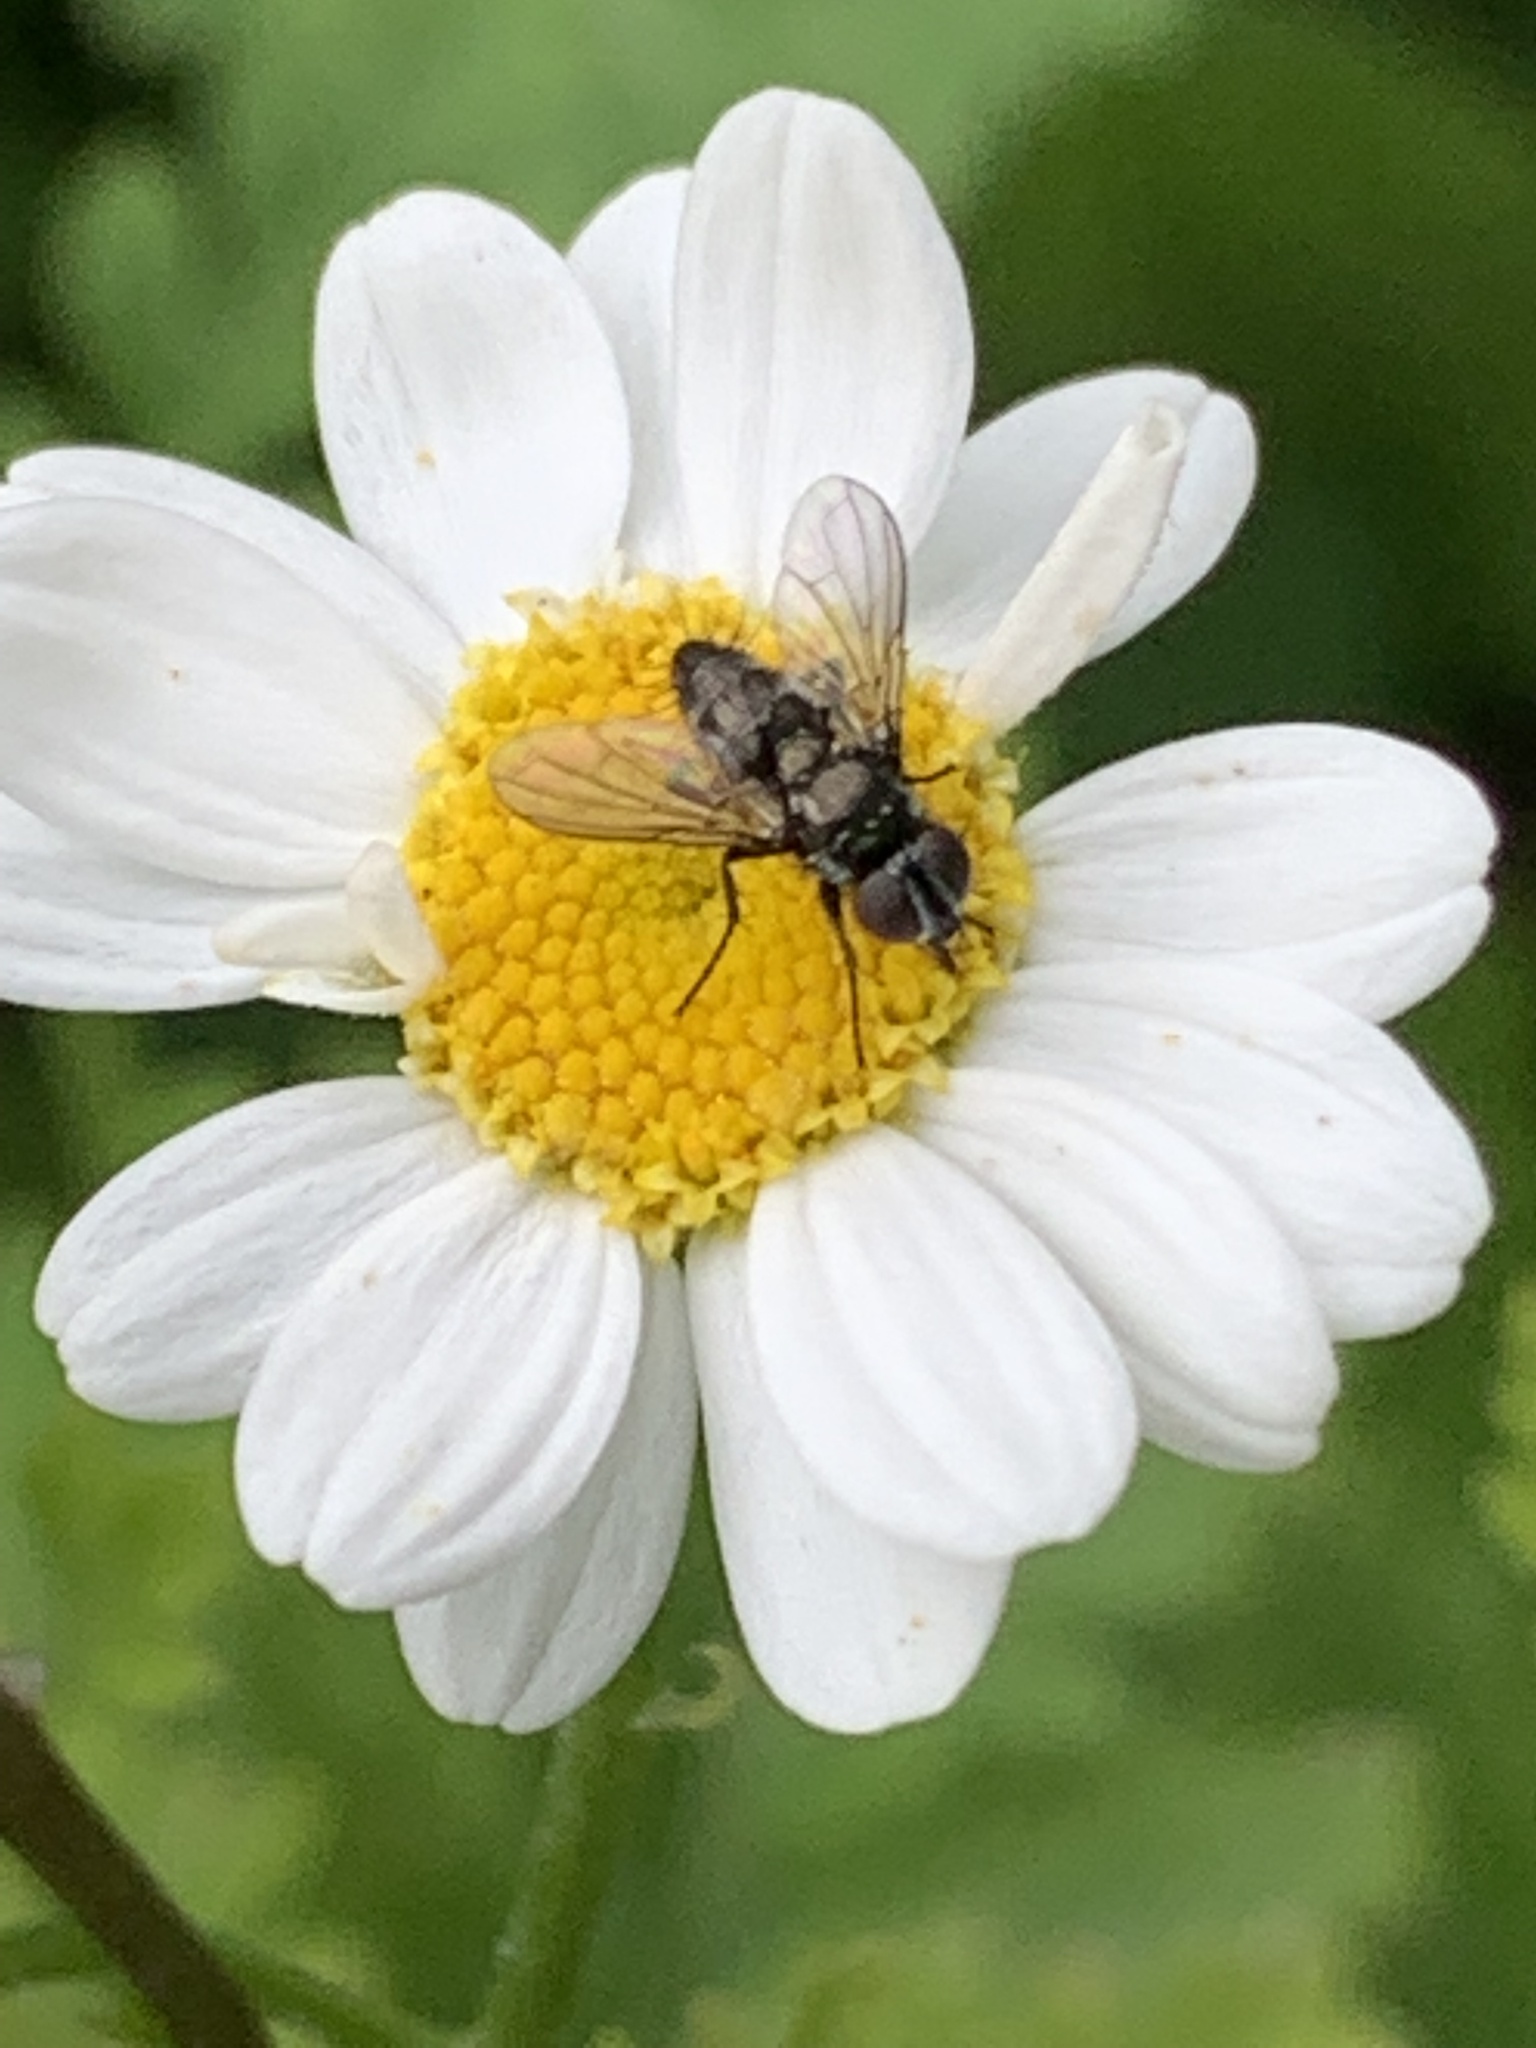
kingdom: Animalia
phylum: Arthropoda
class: Insecta
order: Diptera
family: Calliphoridae
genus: Rhinophora
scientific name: Rhinophora lepida
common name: Pouting woodlouse-fly
